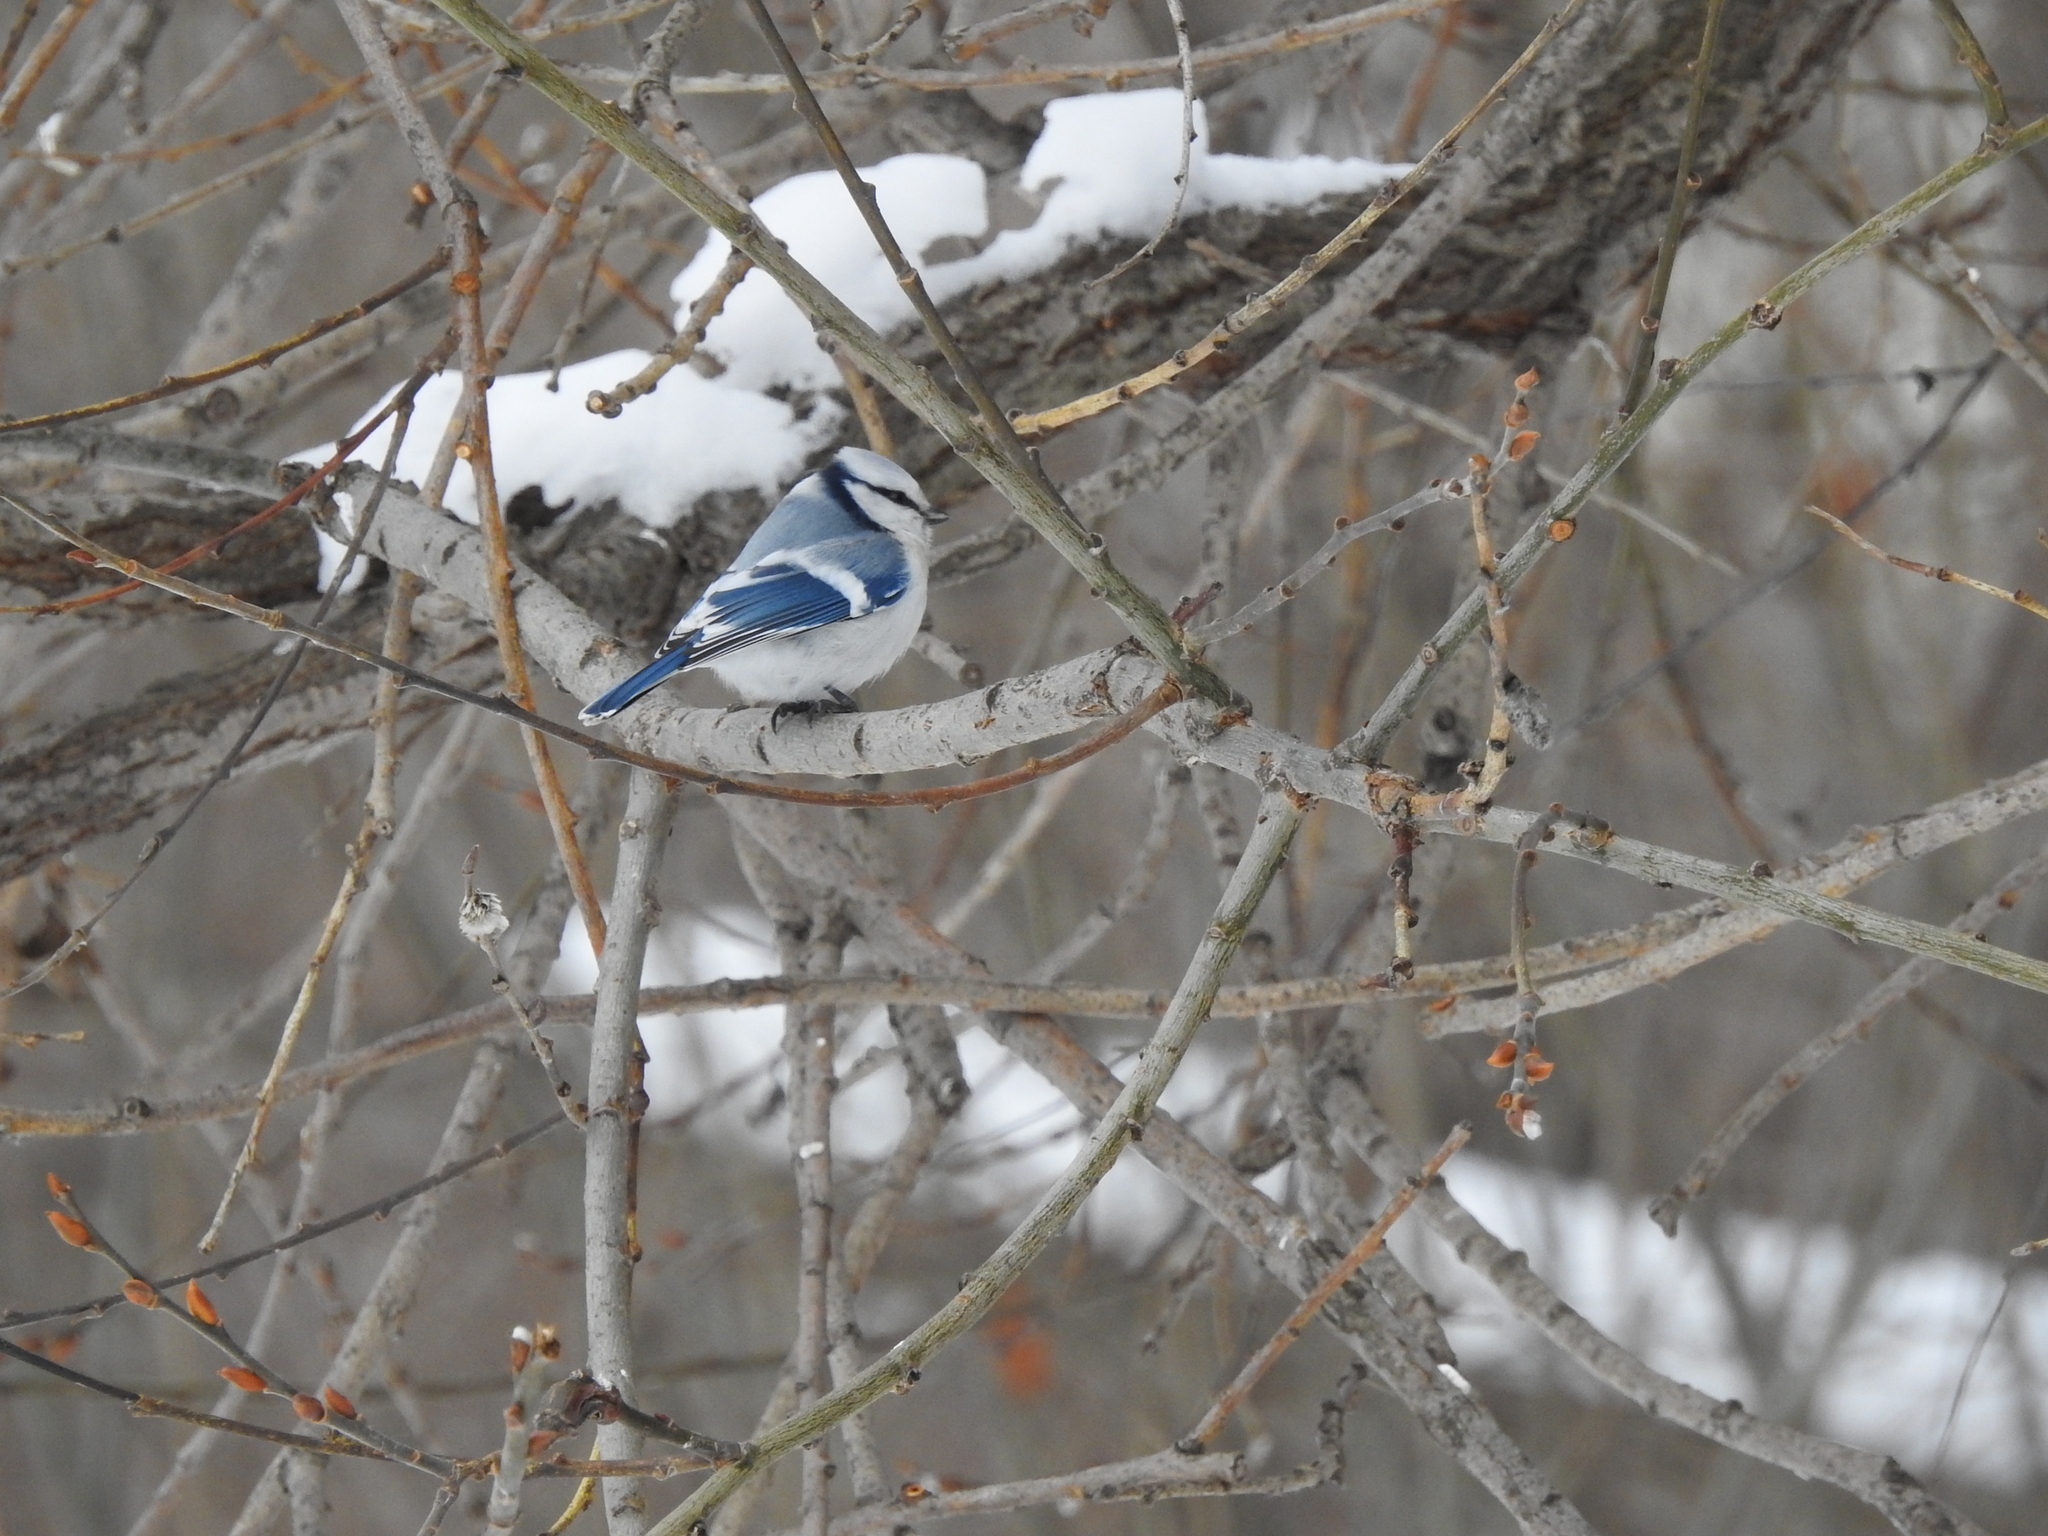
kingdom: Animalia
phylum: Chordata
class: Aves
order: Passeriformes
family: Paridae
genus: Cyanistes
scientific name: Cyanistes
